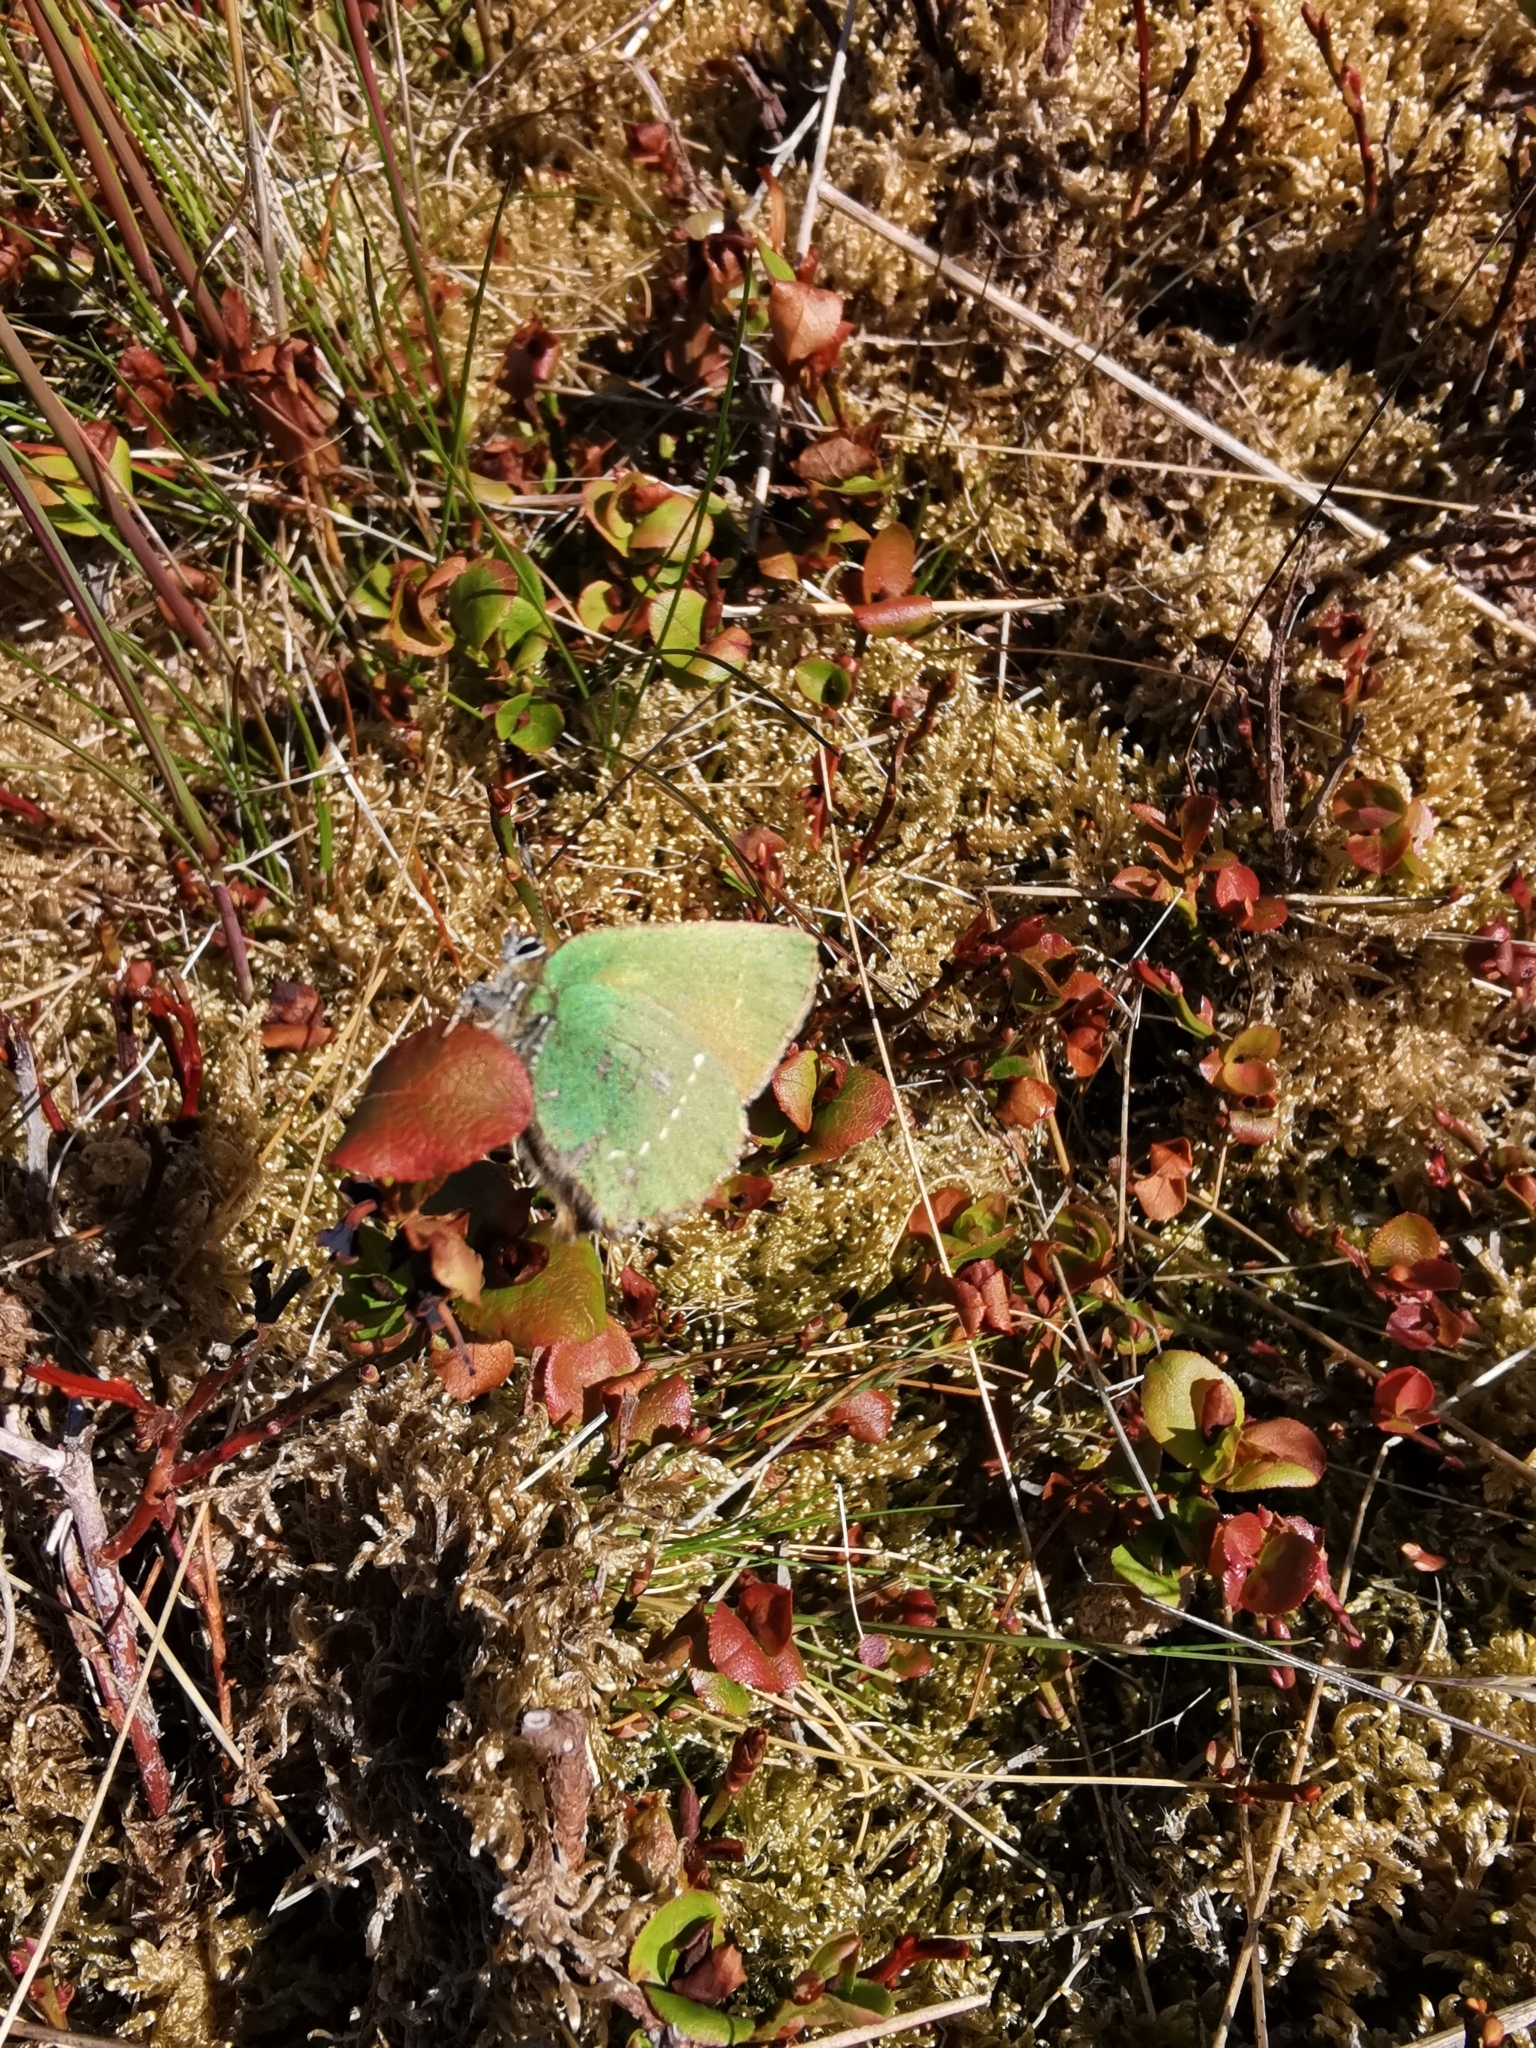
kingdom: Animalia
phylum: Arthropoda
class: Insecta
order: Lepidoptera
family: Lycaenidae
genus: Callophrys
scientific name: Callophrys rubi
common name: Green hairstreak
